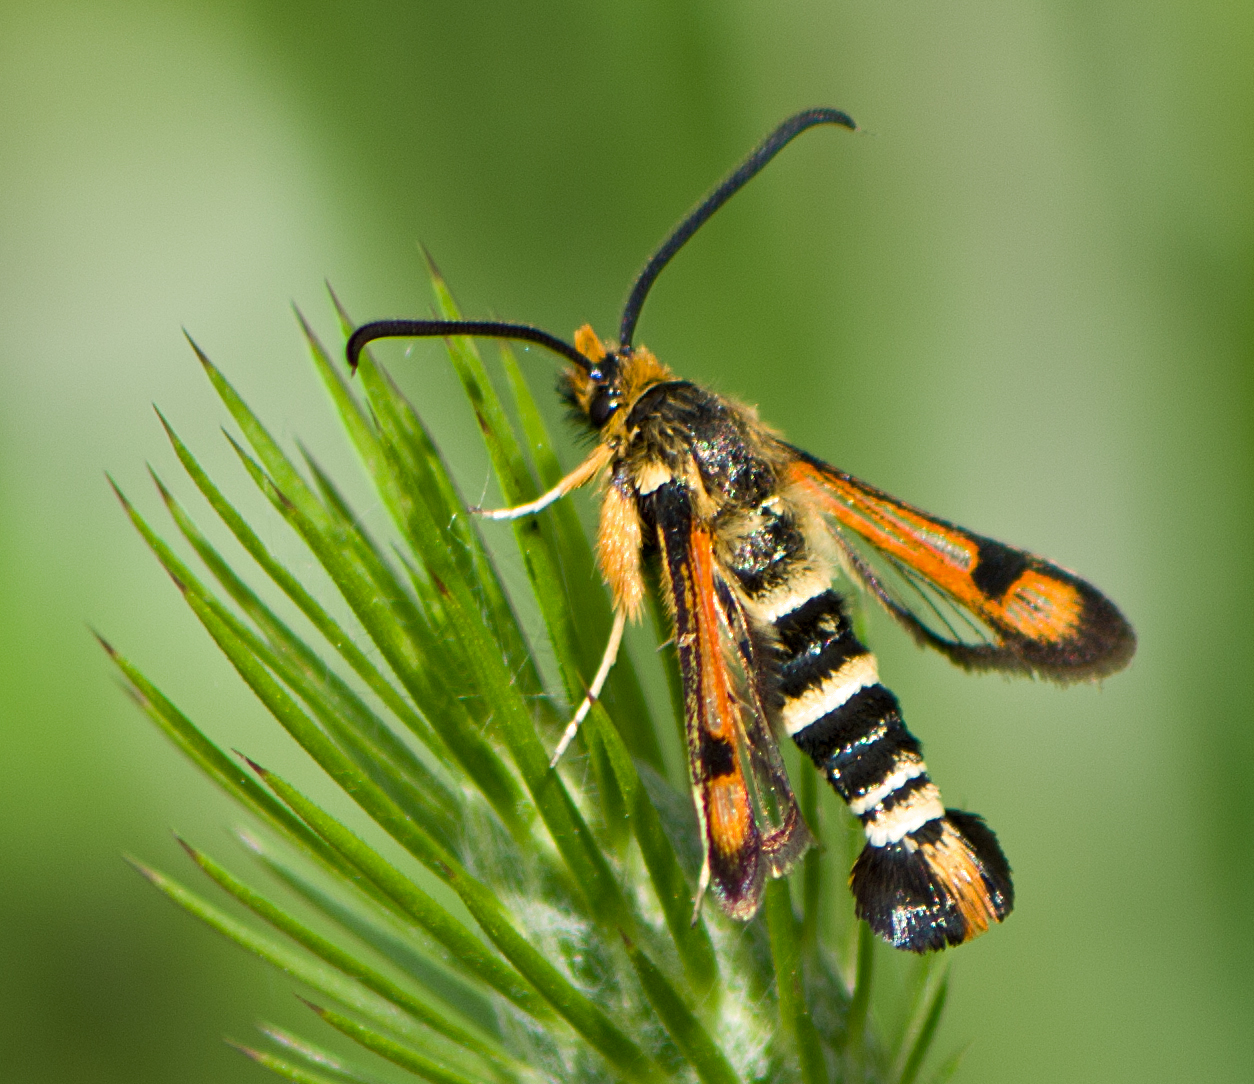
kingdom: Animalia
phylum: Arthropoda
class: Insecta
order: Lepidoptera
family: Sesiidae
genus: Pyropteron
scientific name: Pyropteron minianiformis
